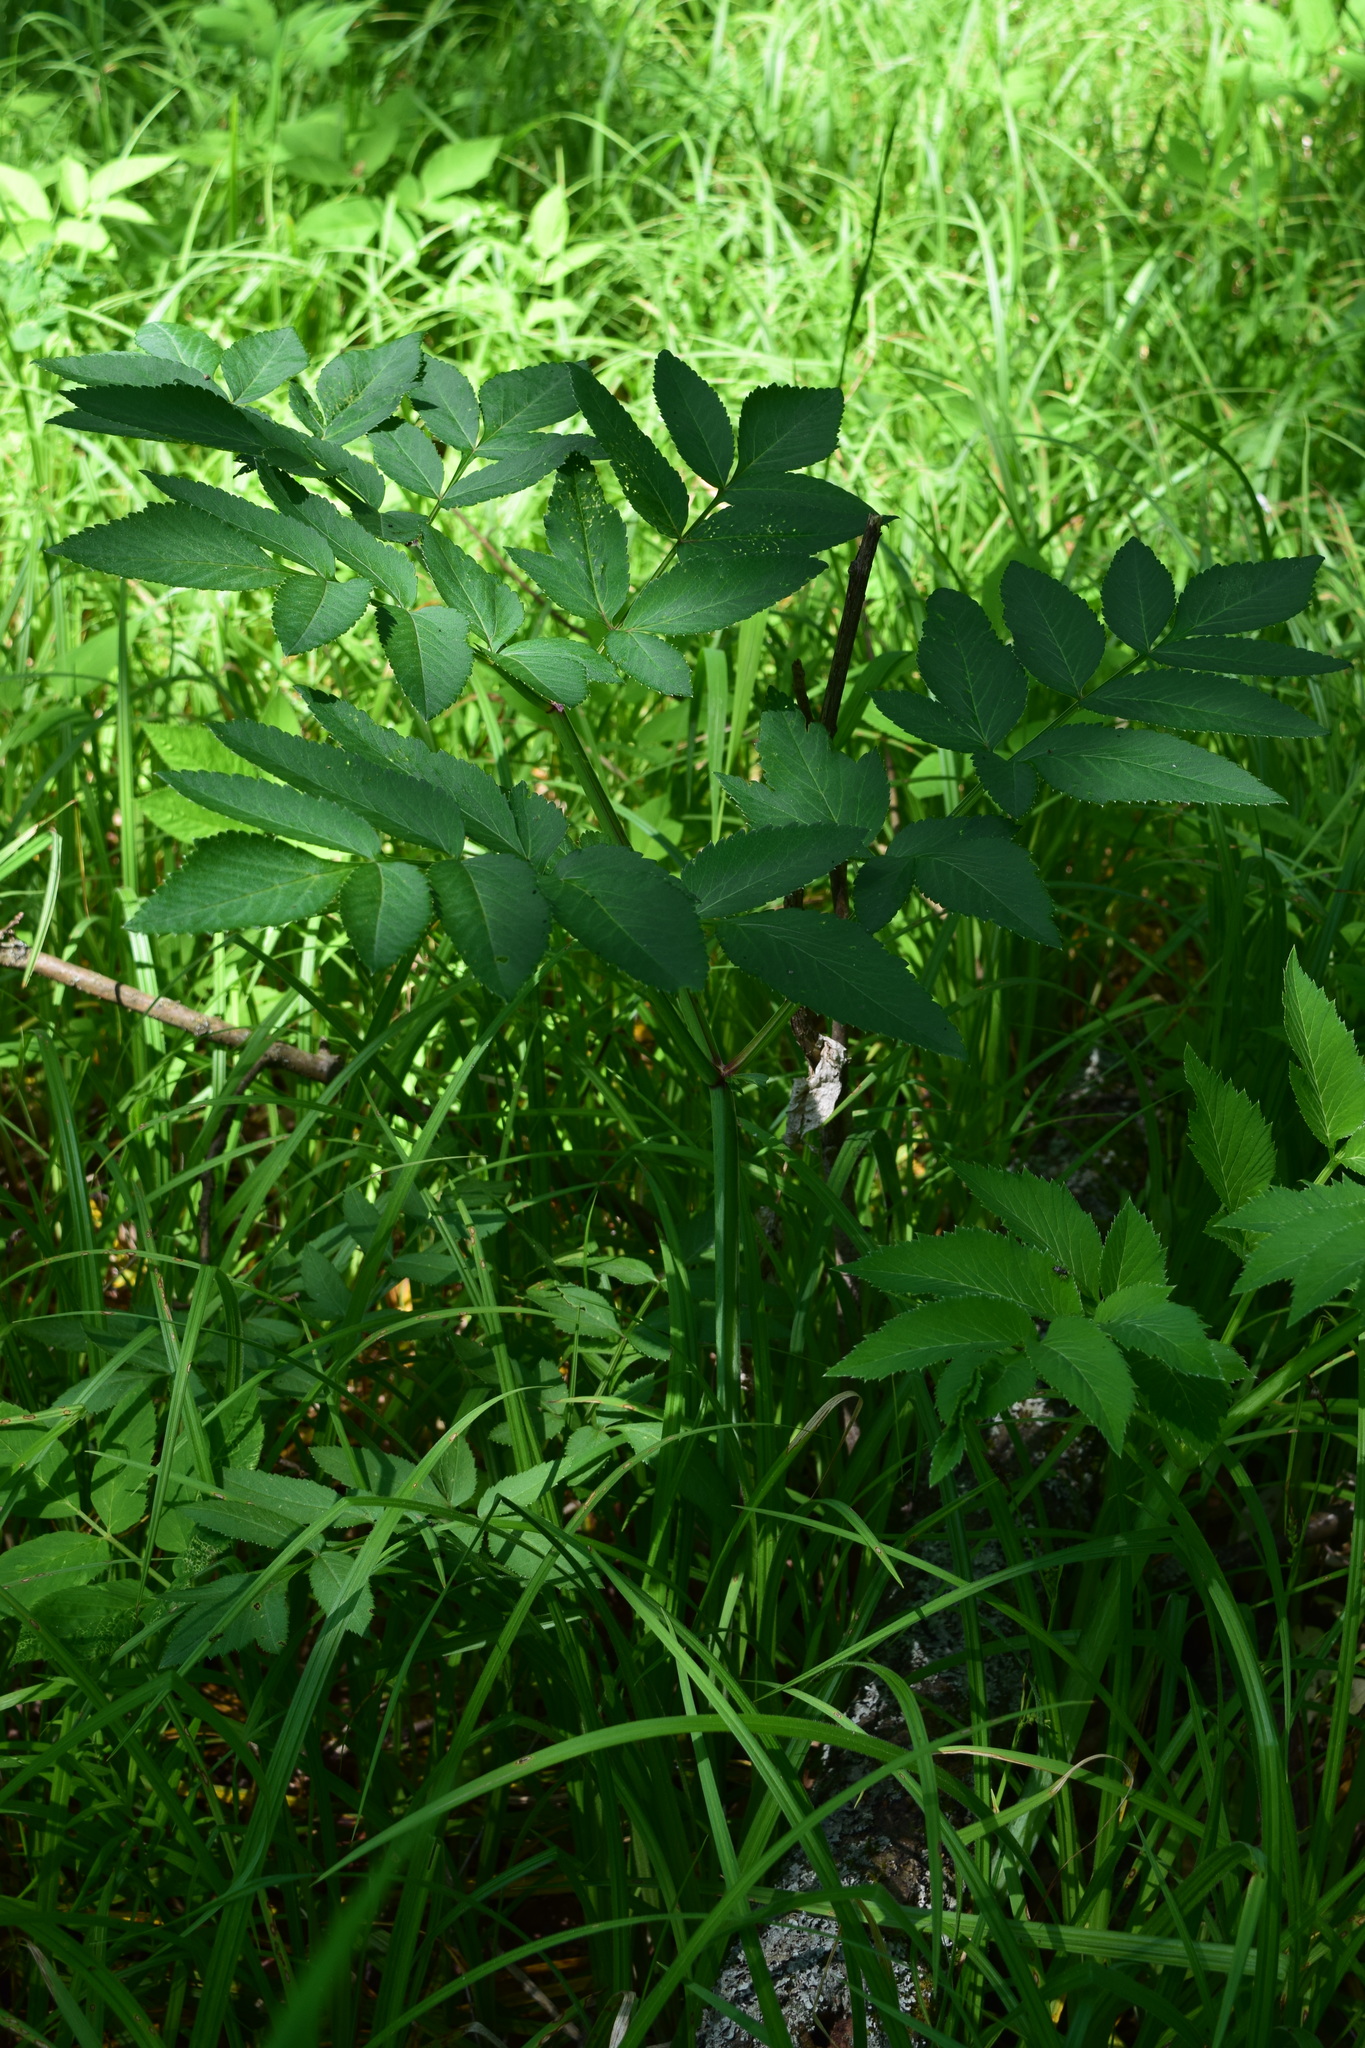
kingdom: Plantae
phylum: Tracheophyta
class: Magnoliopsida
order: Apiales
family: Apiaceae
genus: Angelica
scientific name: Angelica sylvestris
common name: Wild angelica
